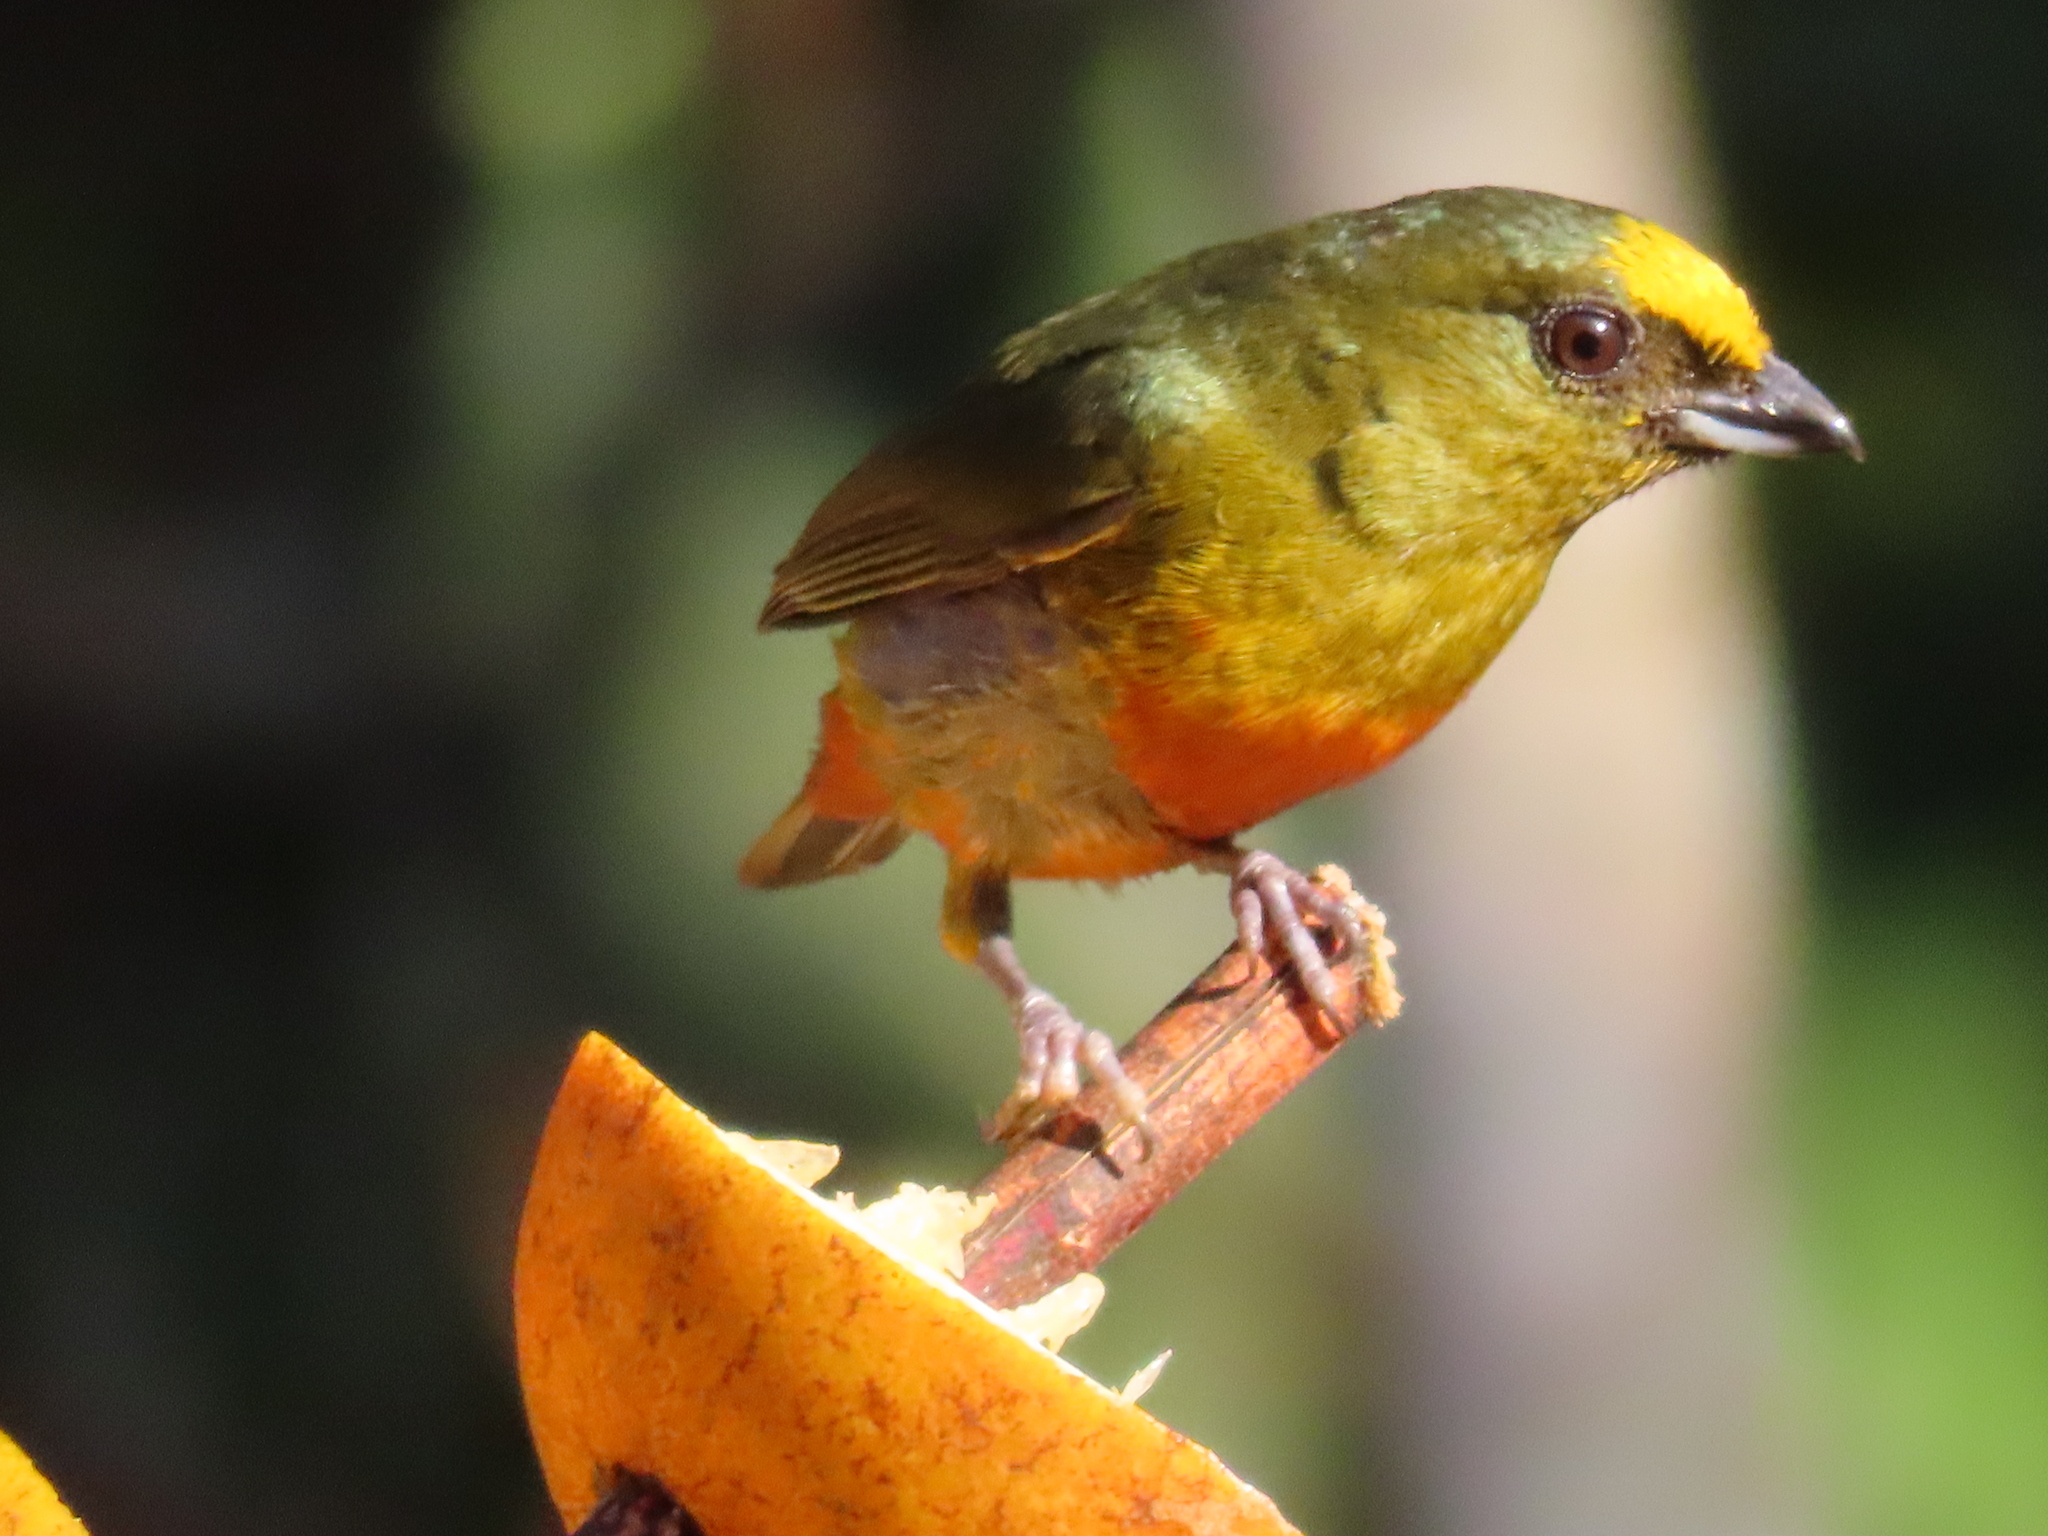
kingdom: Animalia
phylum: Chordata
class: Aves
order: Passeriformes
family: Fringillidae
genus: Euphonia
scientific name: Euphonia gouldi
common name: Olive-backed euphonia
